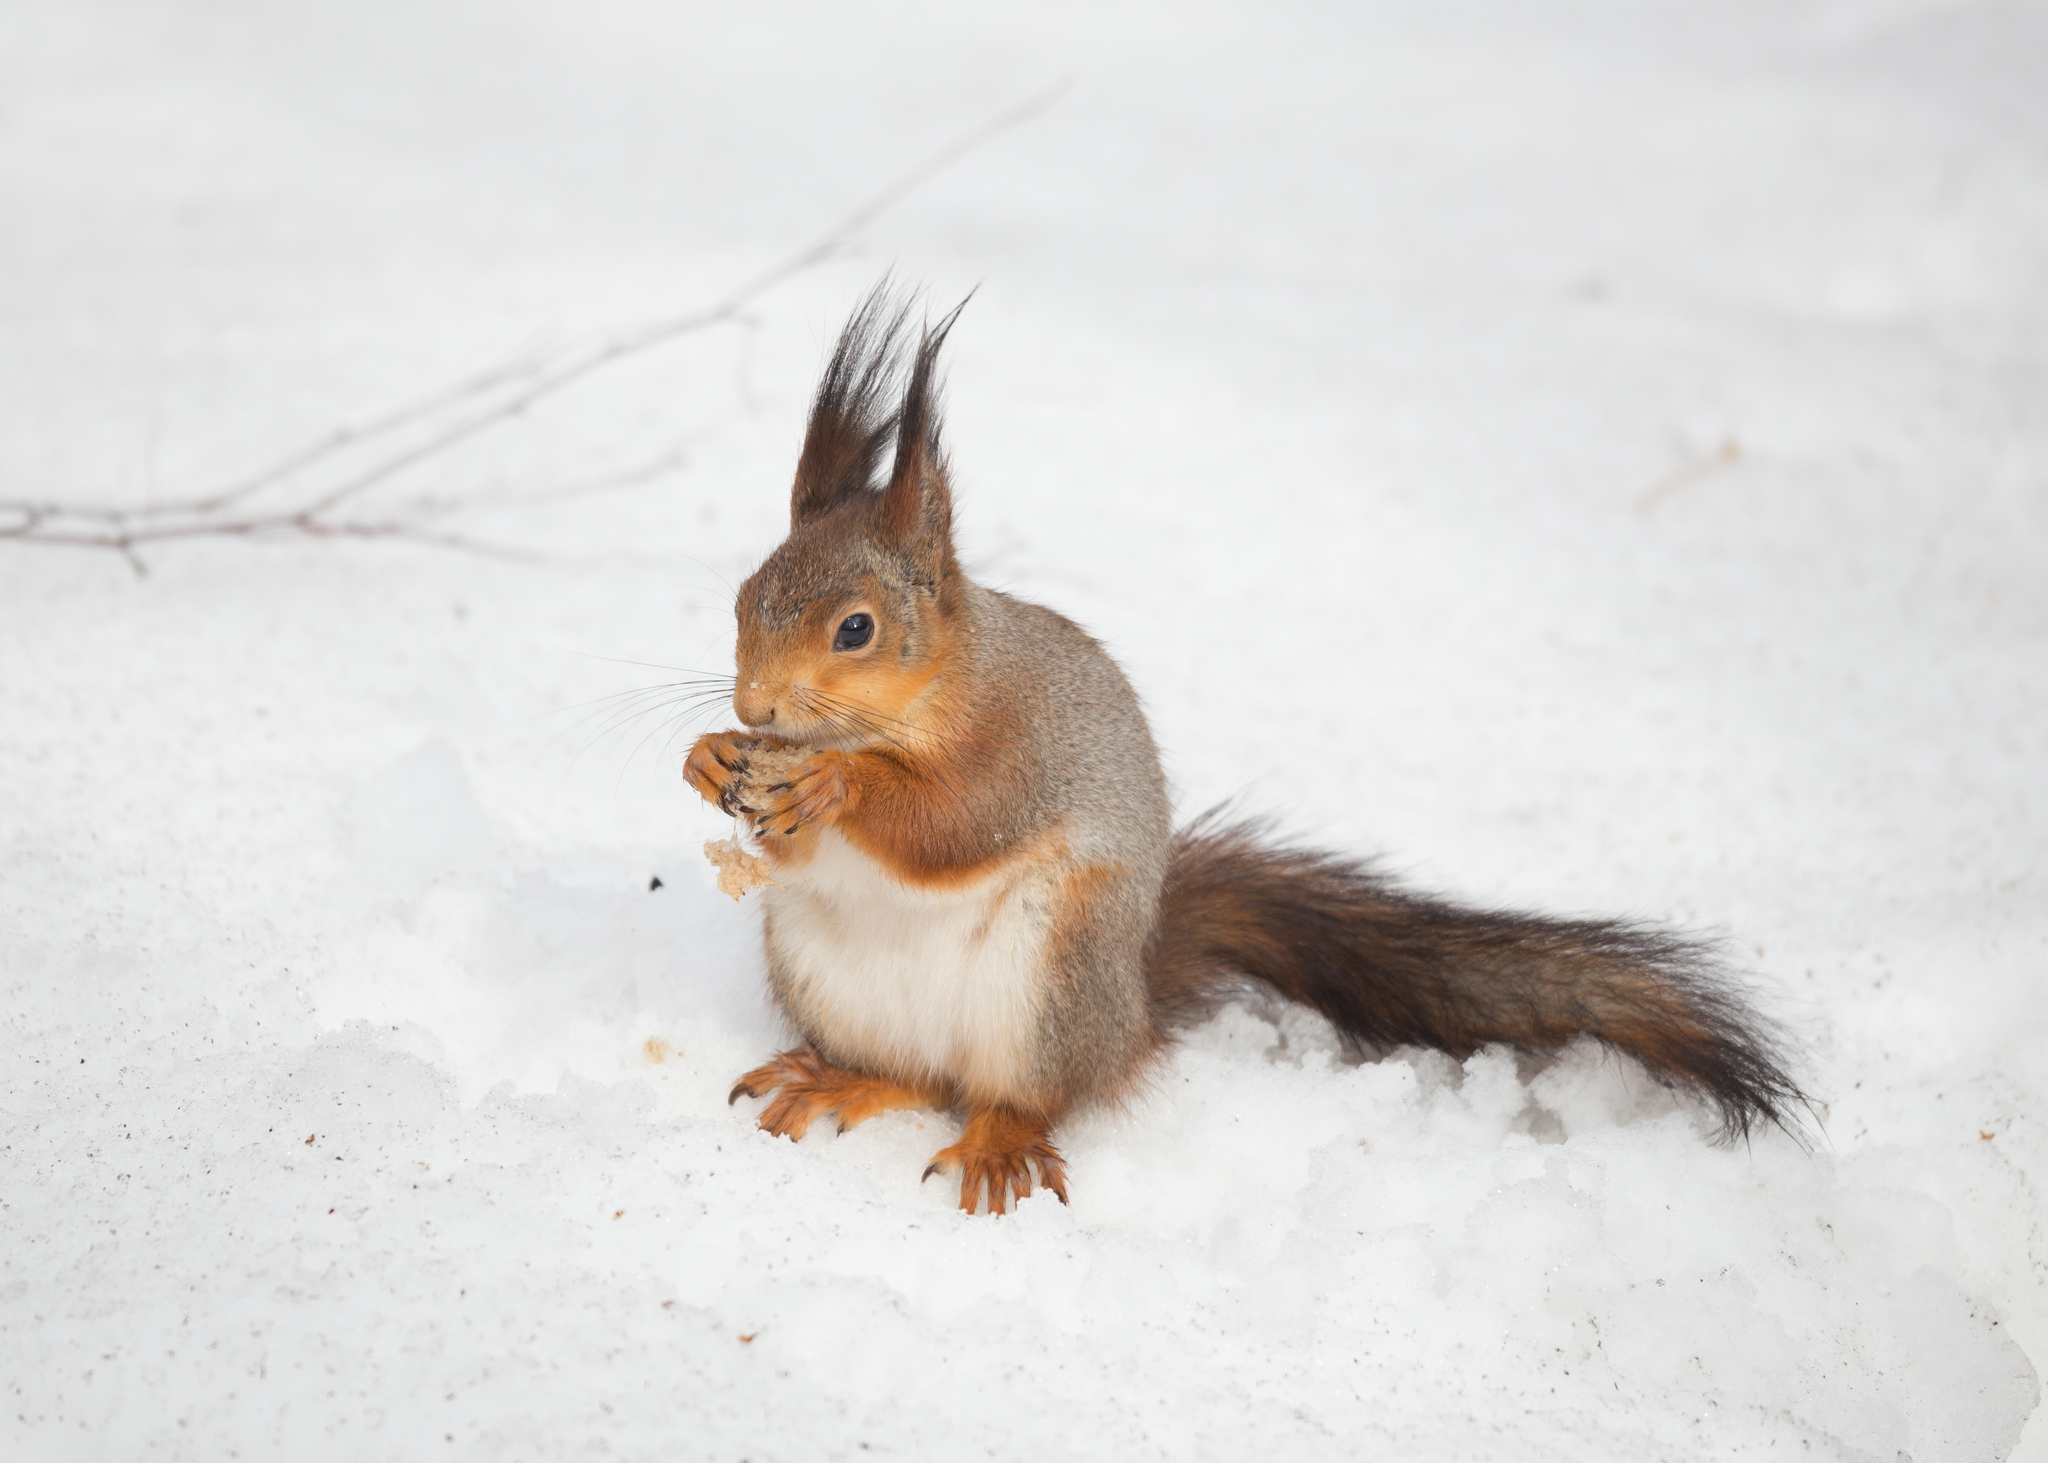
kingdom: Animalia
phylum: Chordata
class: Mammalia
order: Rodentia
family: Sciuridae
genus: Sciurus
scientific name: Sciurus vulgaris
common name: Eurasian red squirrel
